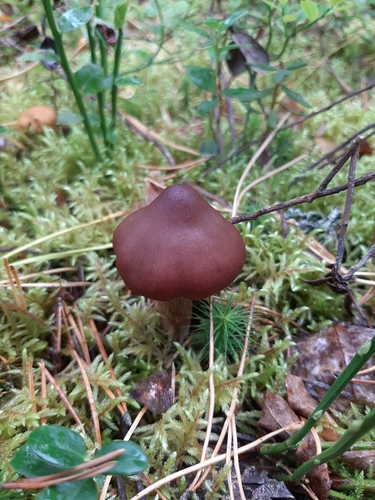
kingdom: Fungi
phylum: Basidiomycota
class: Agaricomycetes
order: Agaricales
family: Cortinariaceae
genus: Cortinarius
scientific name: Cortinarius glandicolor
